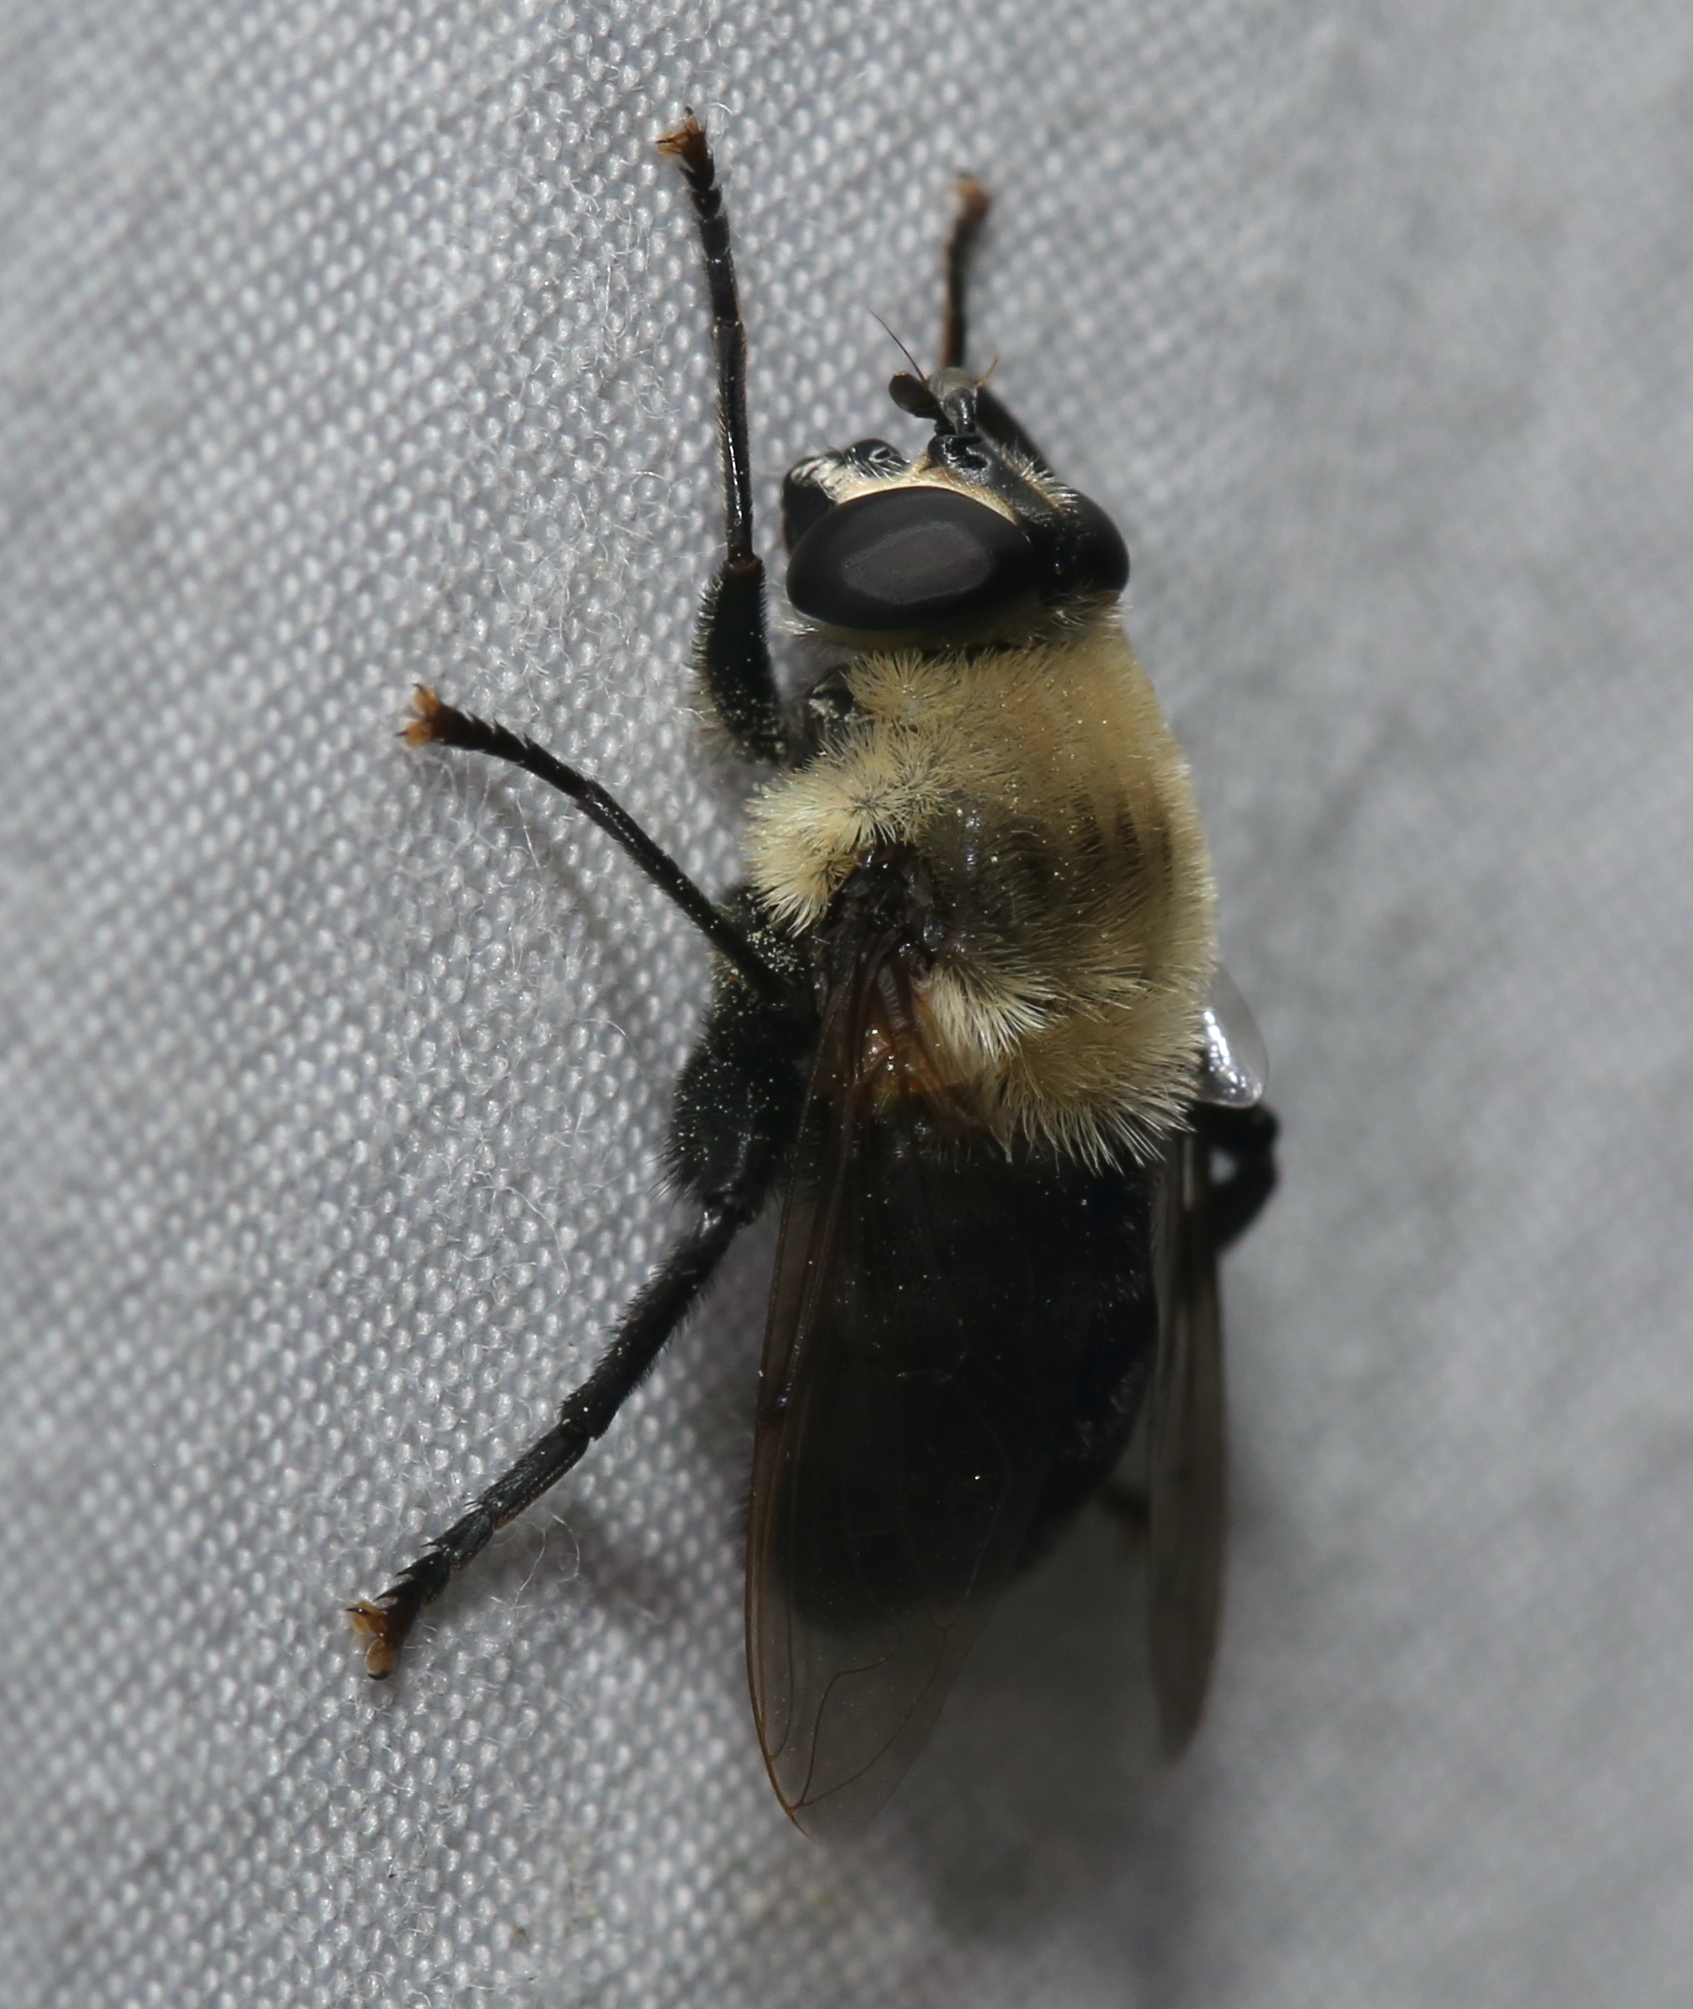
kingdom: Animalia
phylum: Arthropoda
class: Insecta
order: Diptera
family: Syrphidae
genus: Imatisma
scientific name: Imatisma bautias
